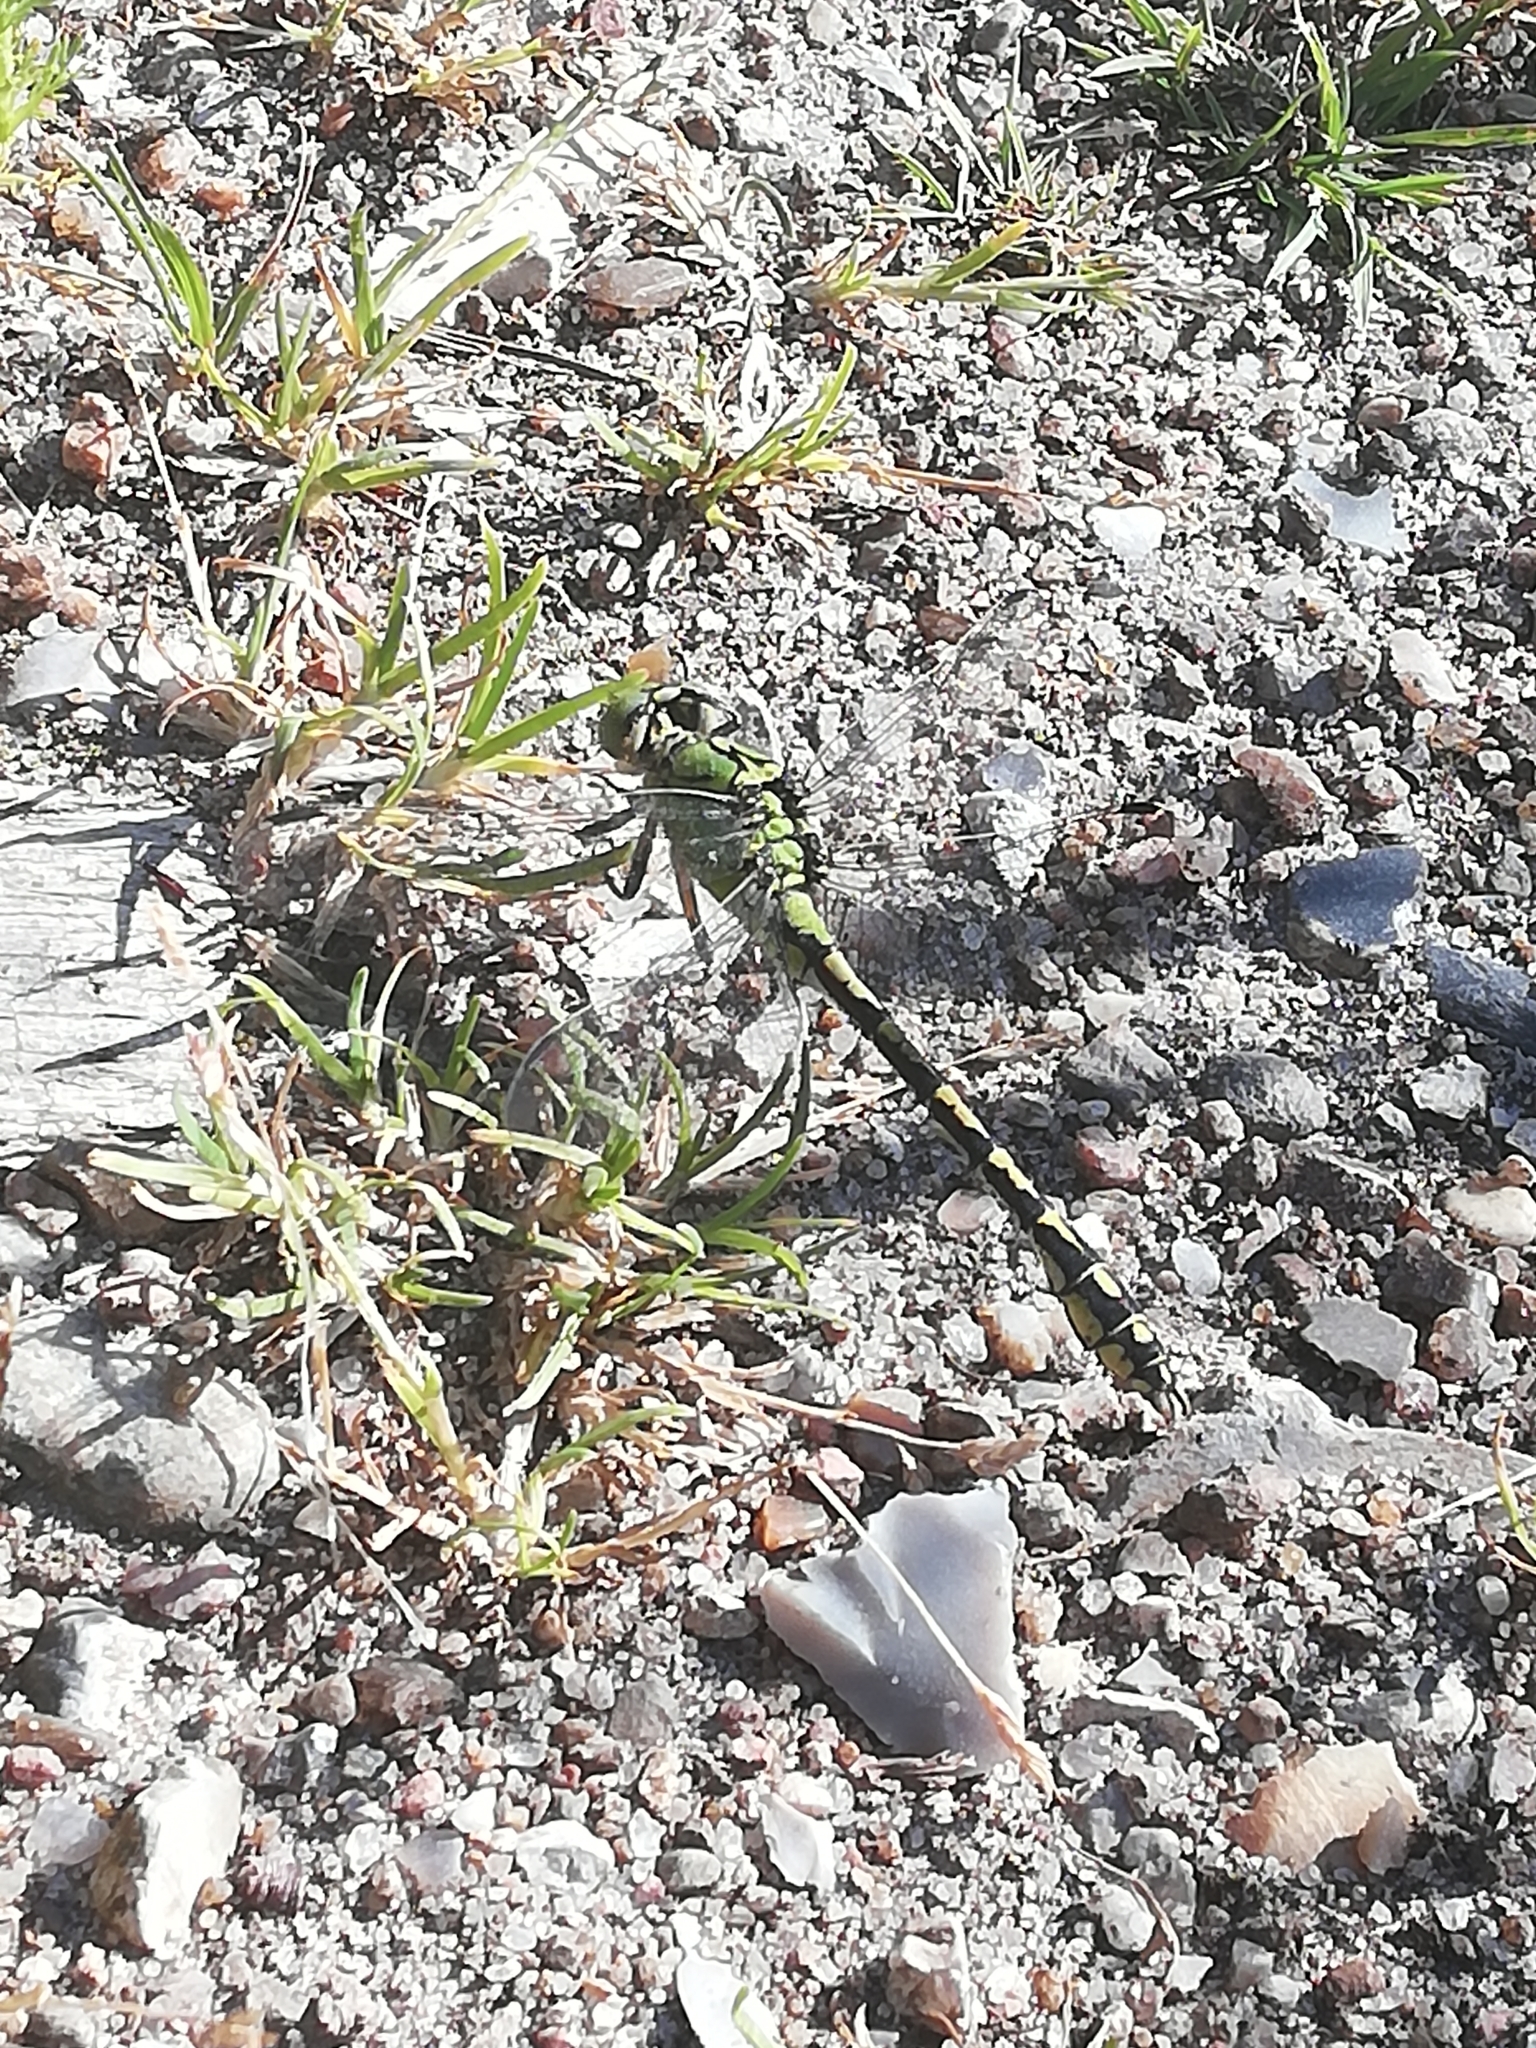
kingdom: Animalia
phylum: Arthropoda
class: Insecta
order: Odonata
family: Gomphidae
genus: Ophiogomphus
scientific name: Ophiogomphus cecilia
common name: Green snaketail
